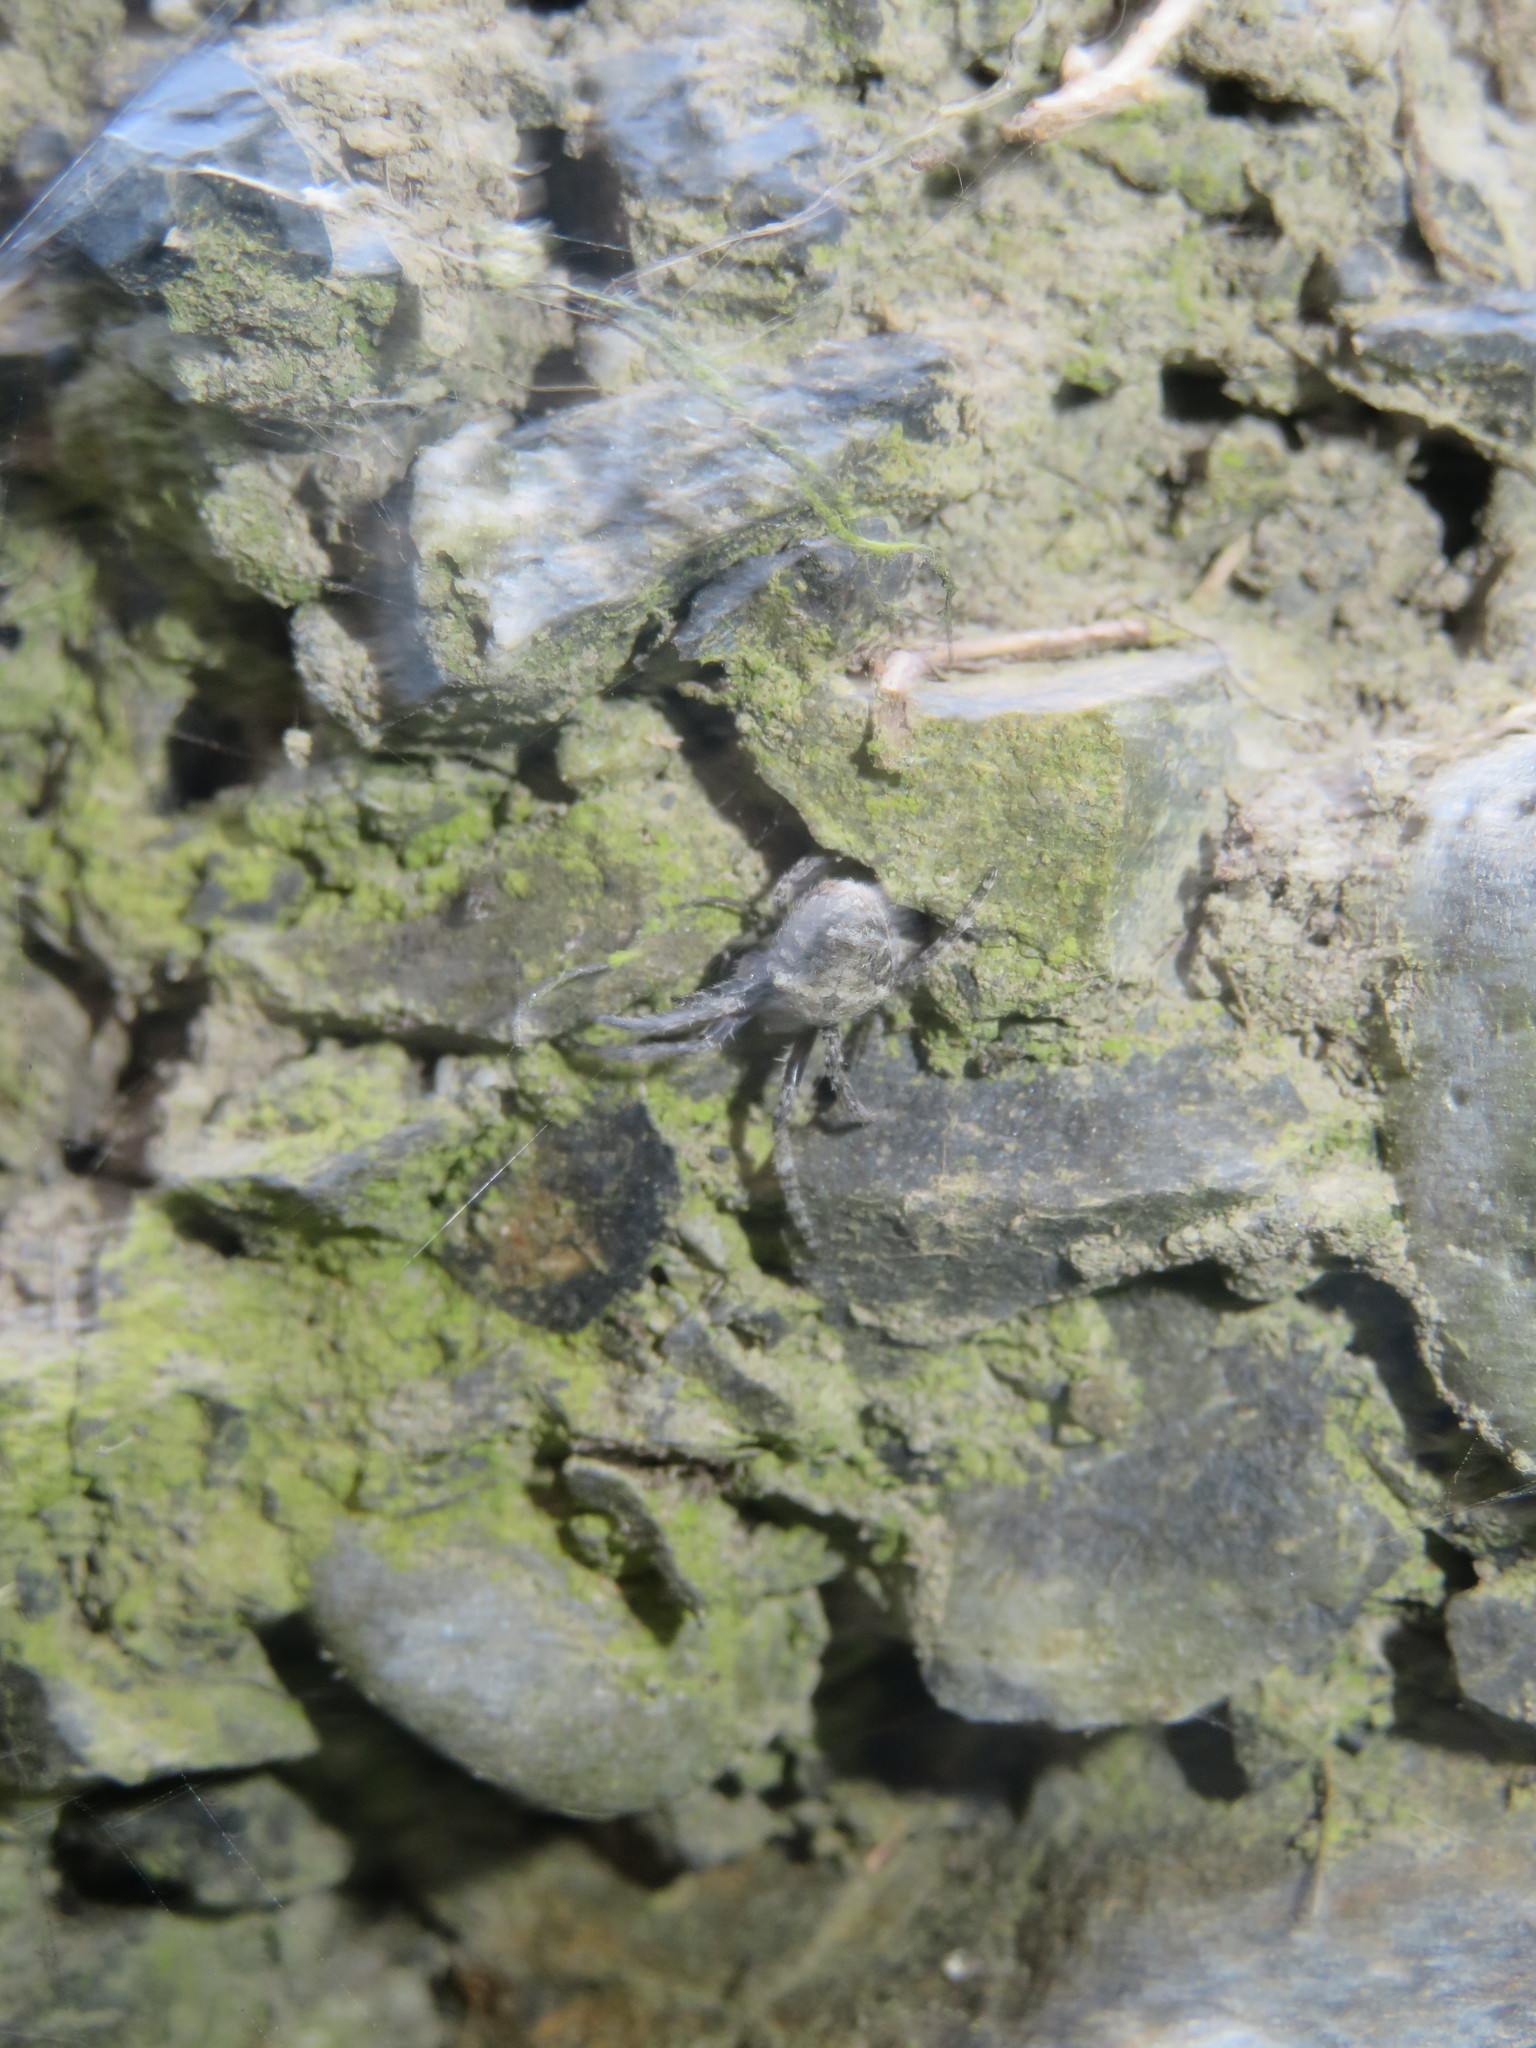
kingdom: Animalia
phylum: Arthropoda
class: Arachnida
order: Araneae
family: Araneidae
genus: Eriophora
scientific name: Eriophora pustulosa
